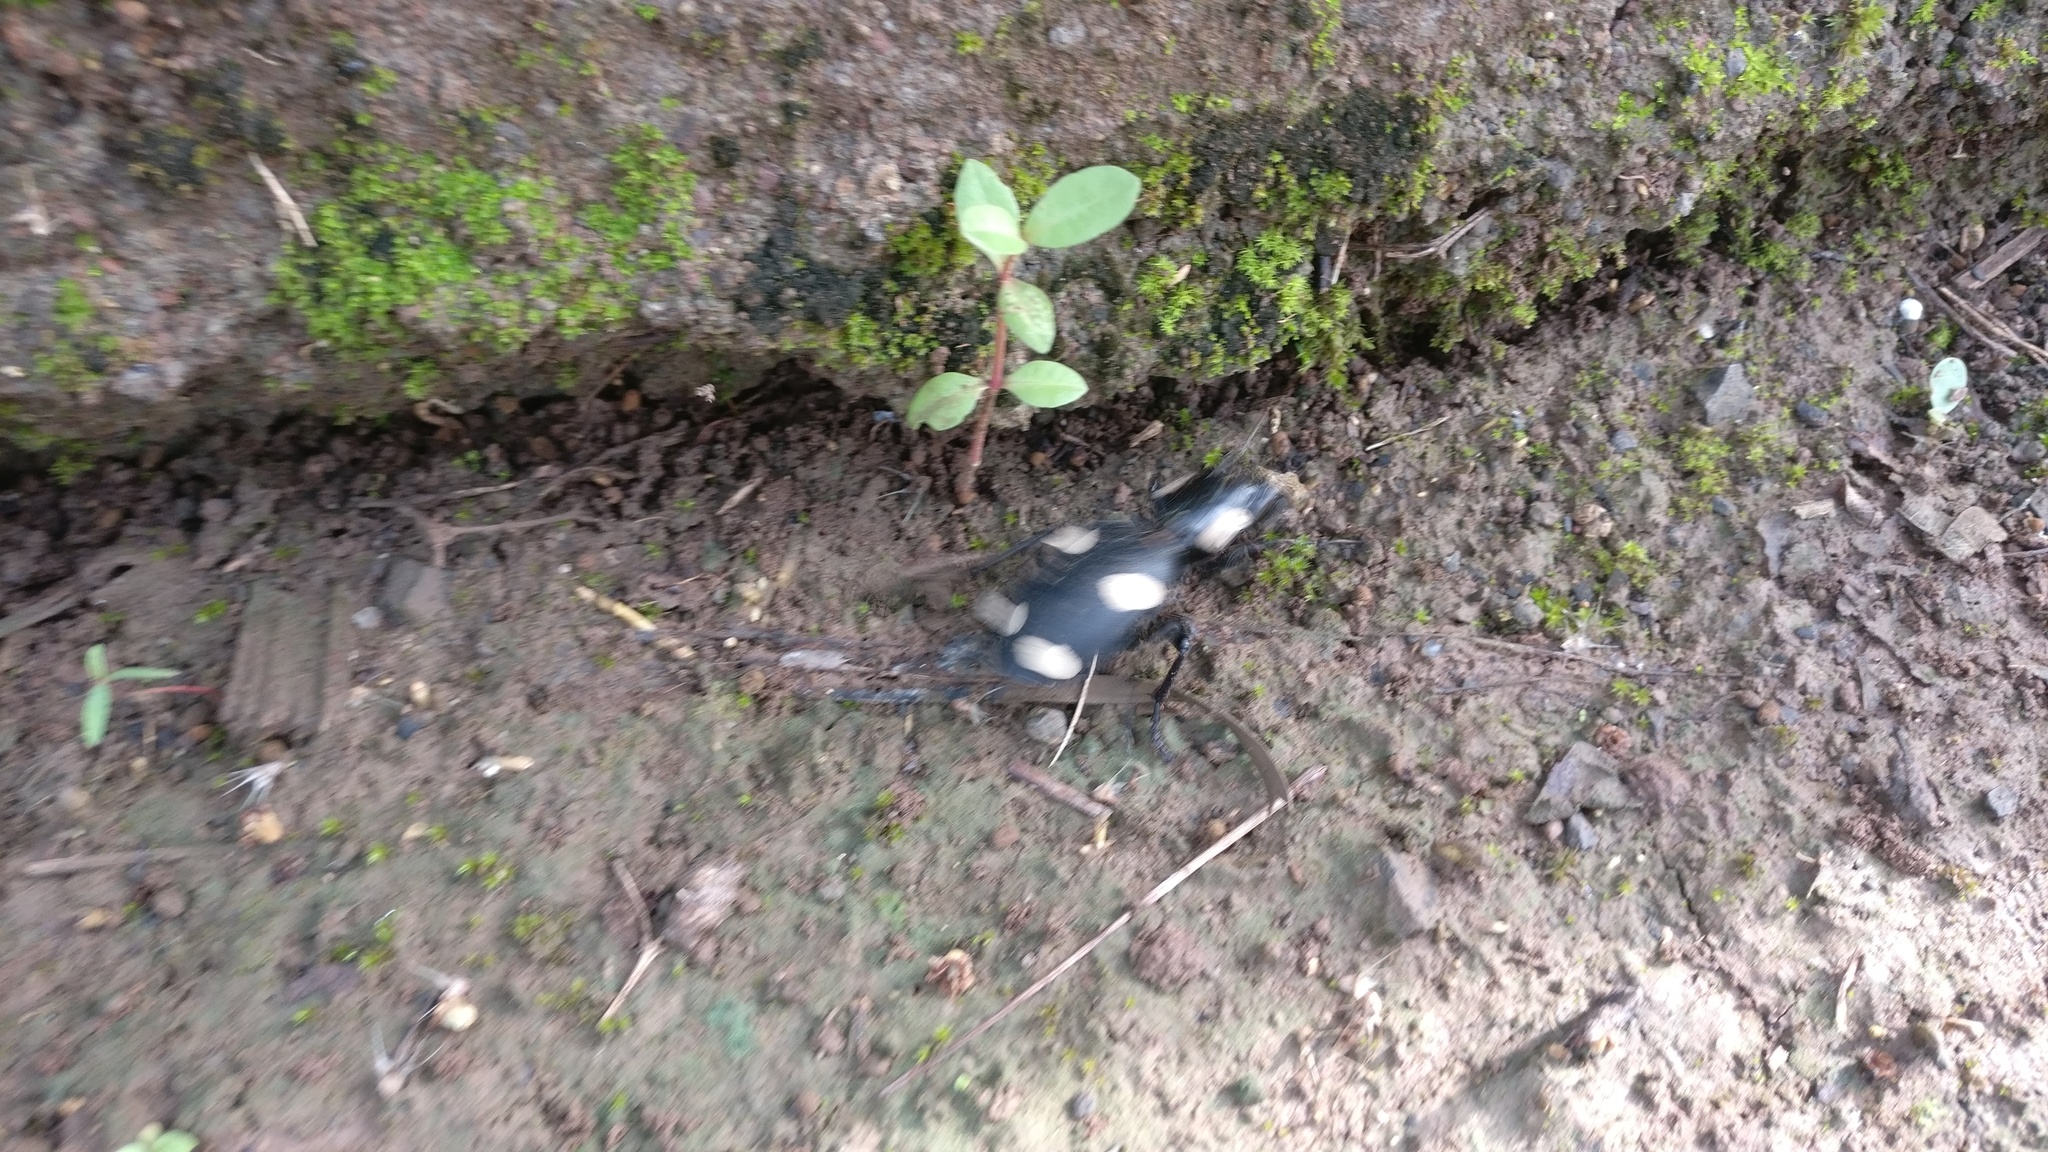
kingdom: Animalia
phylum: Arthropoda
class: Insecta
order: Coleoptera
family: Carabidae
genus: Anthia
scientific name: Anthia sexguttata
